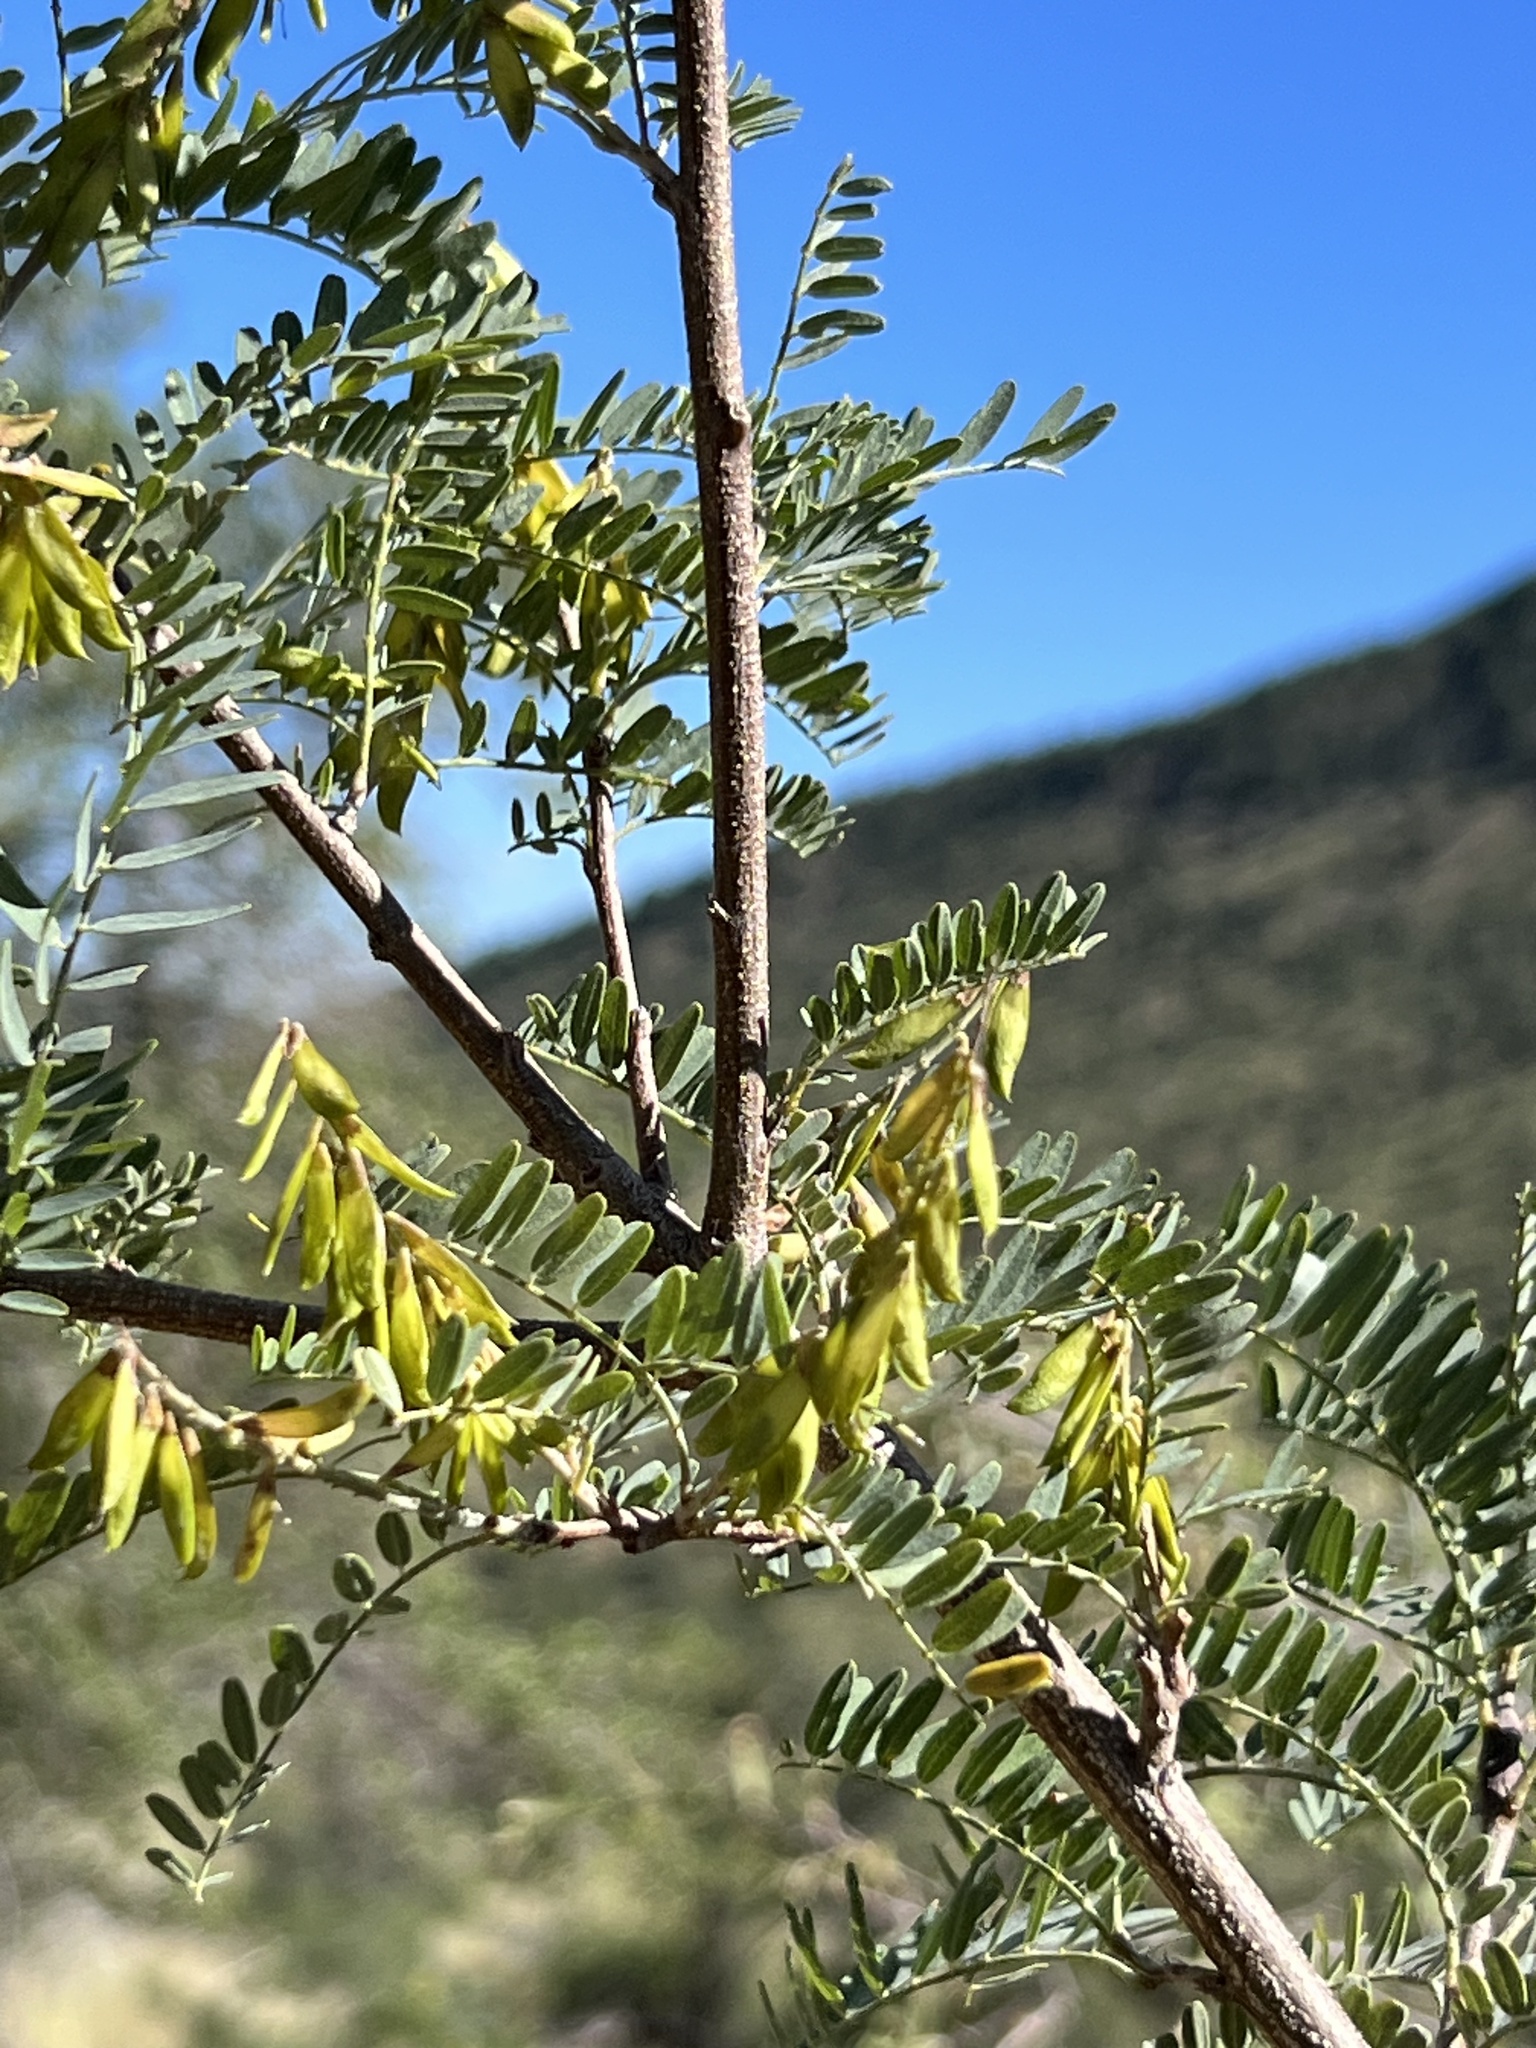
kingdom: Plantae
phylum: Tracheophyta
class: Magnoliopsida
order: Fabales
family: Fabaceae
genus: Eysenhardtia
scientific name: Eysenhardtia orthocarpa
